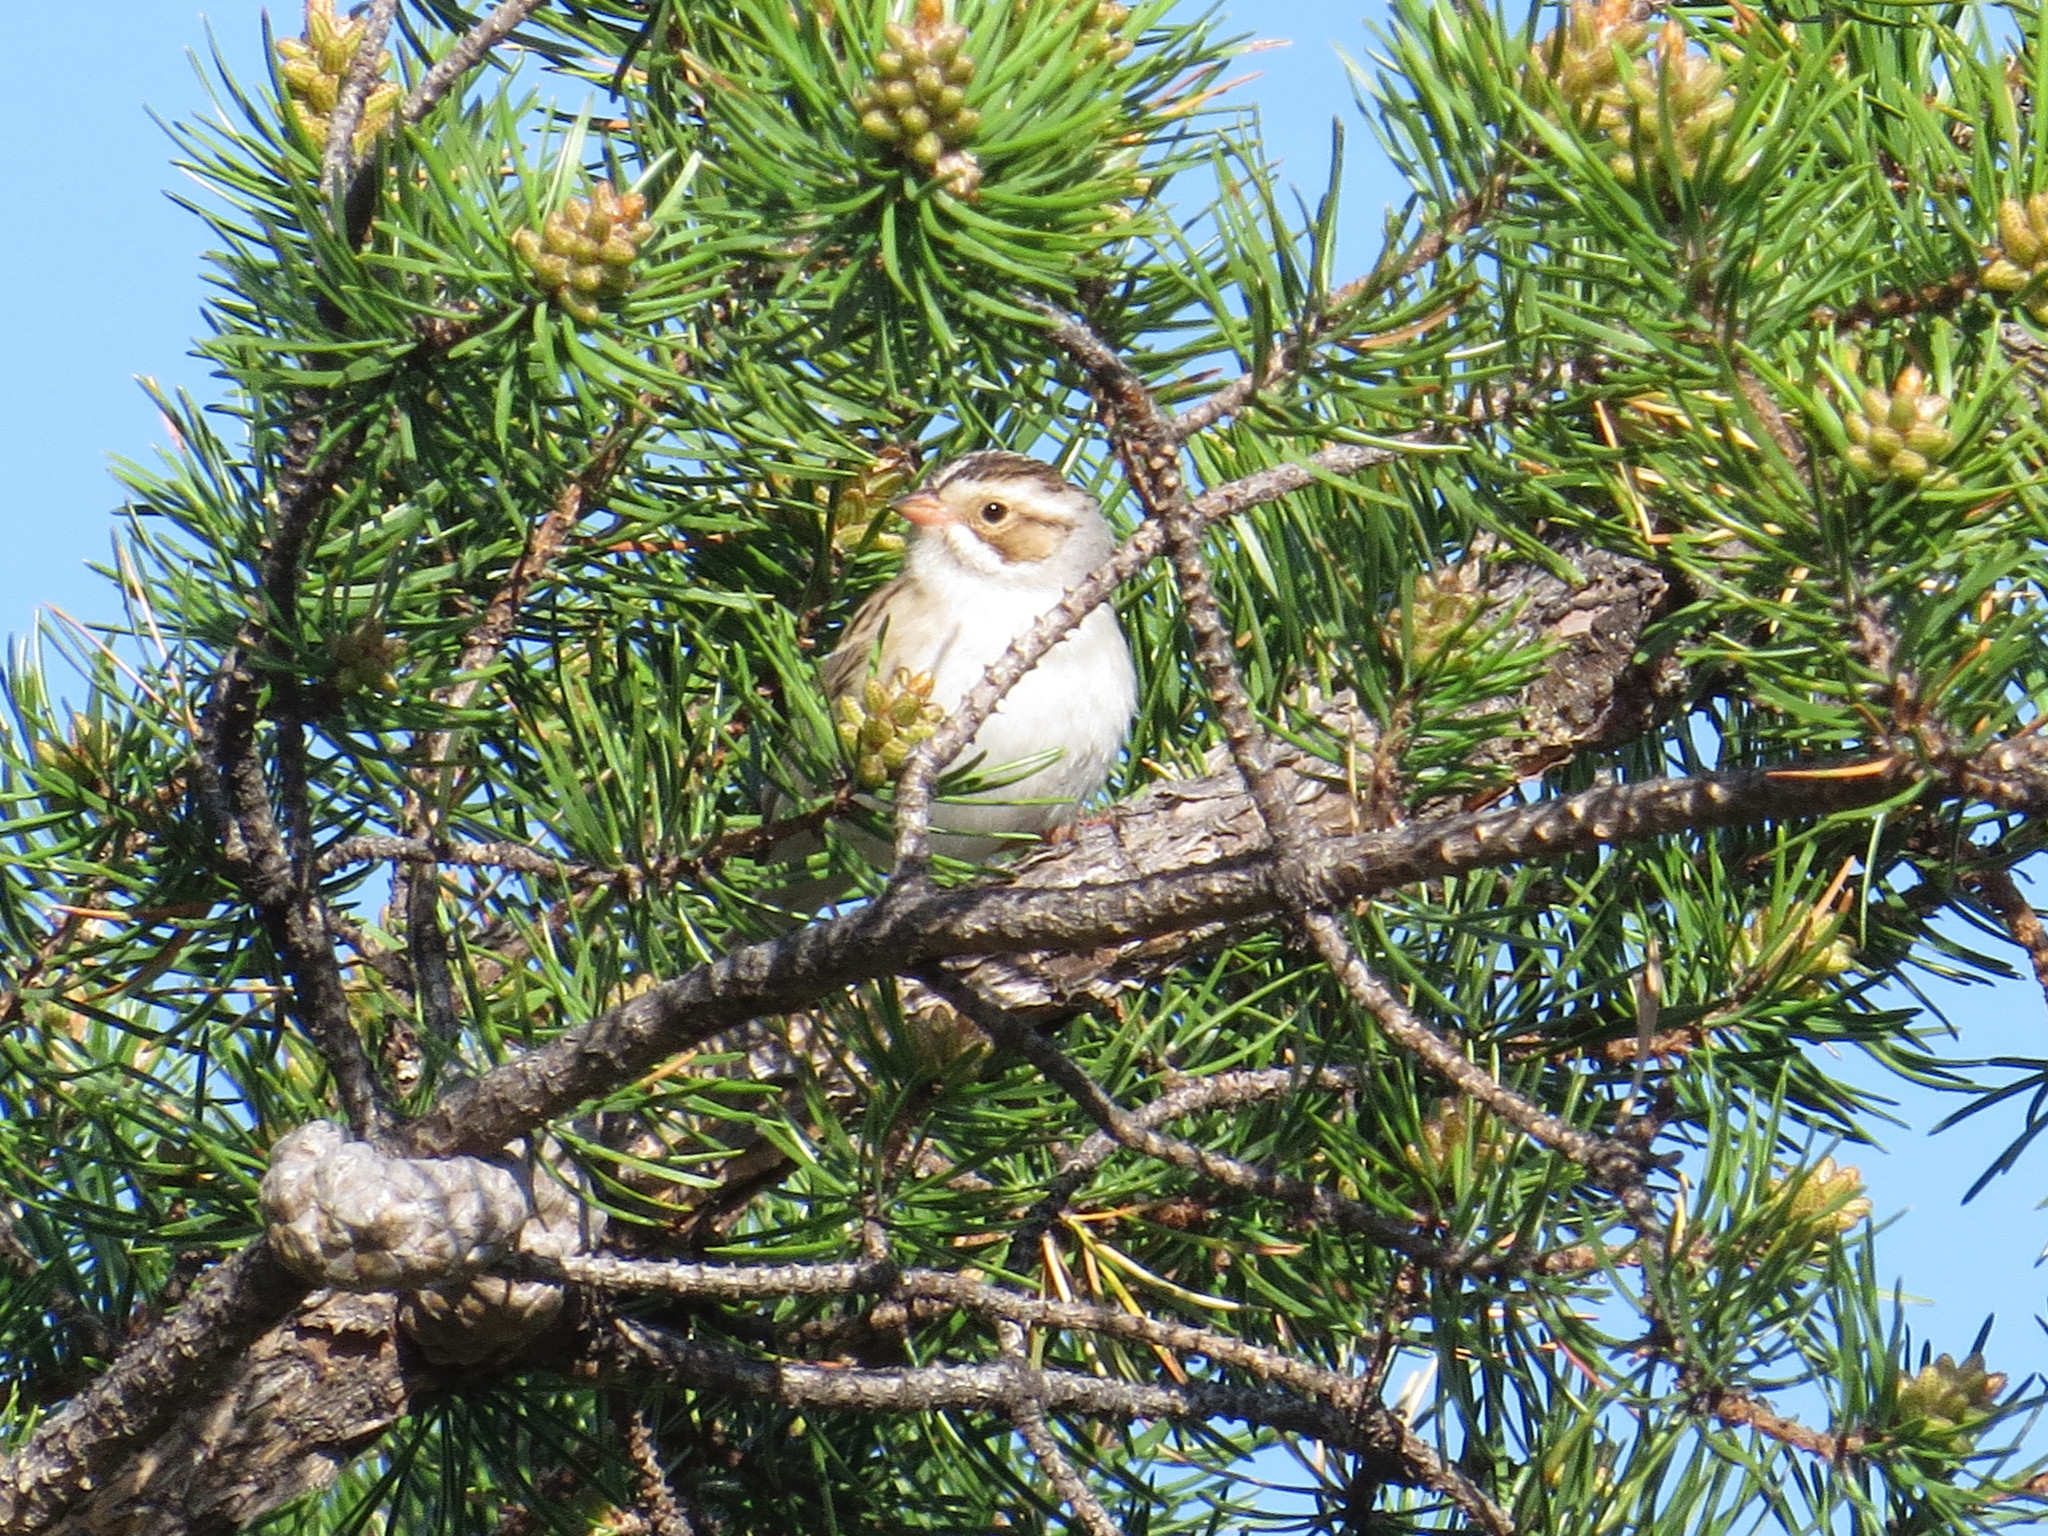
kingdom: Animalia
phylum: Chordata
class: Aves
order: Passeriformes
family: Passerellidae
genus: Spizella
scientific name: Spizella pallida
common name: Clay-colored sparrow
